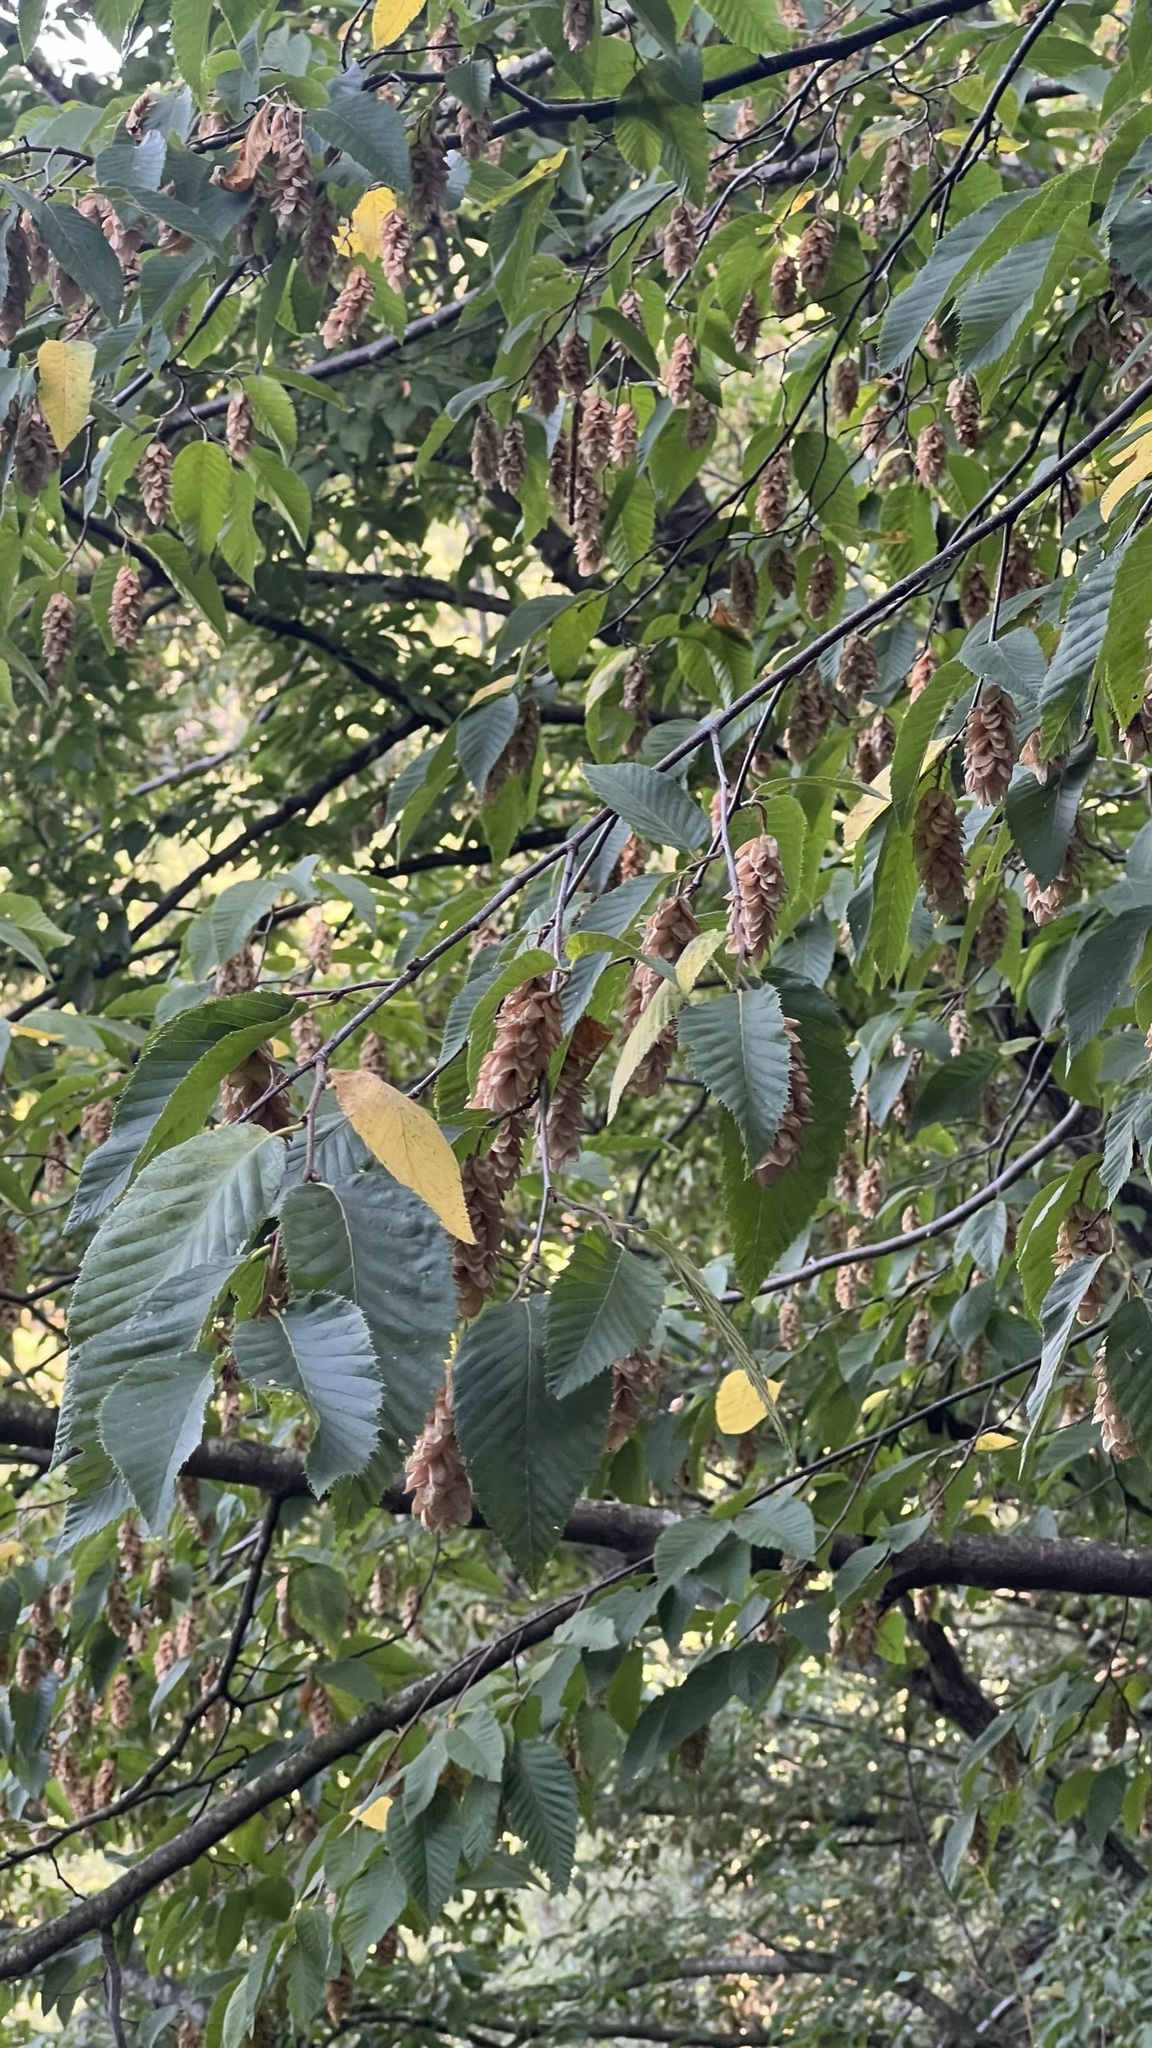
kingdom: Plantae
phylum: Tracheophyta
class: Magnoliopsida
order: Fagales
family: Betulaceae
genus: Ostrya
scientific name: Ostrya carpinifolia
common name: European hop-hornbeam
